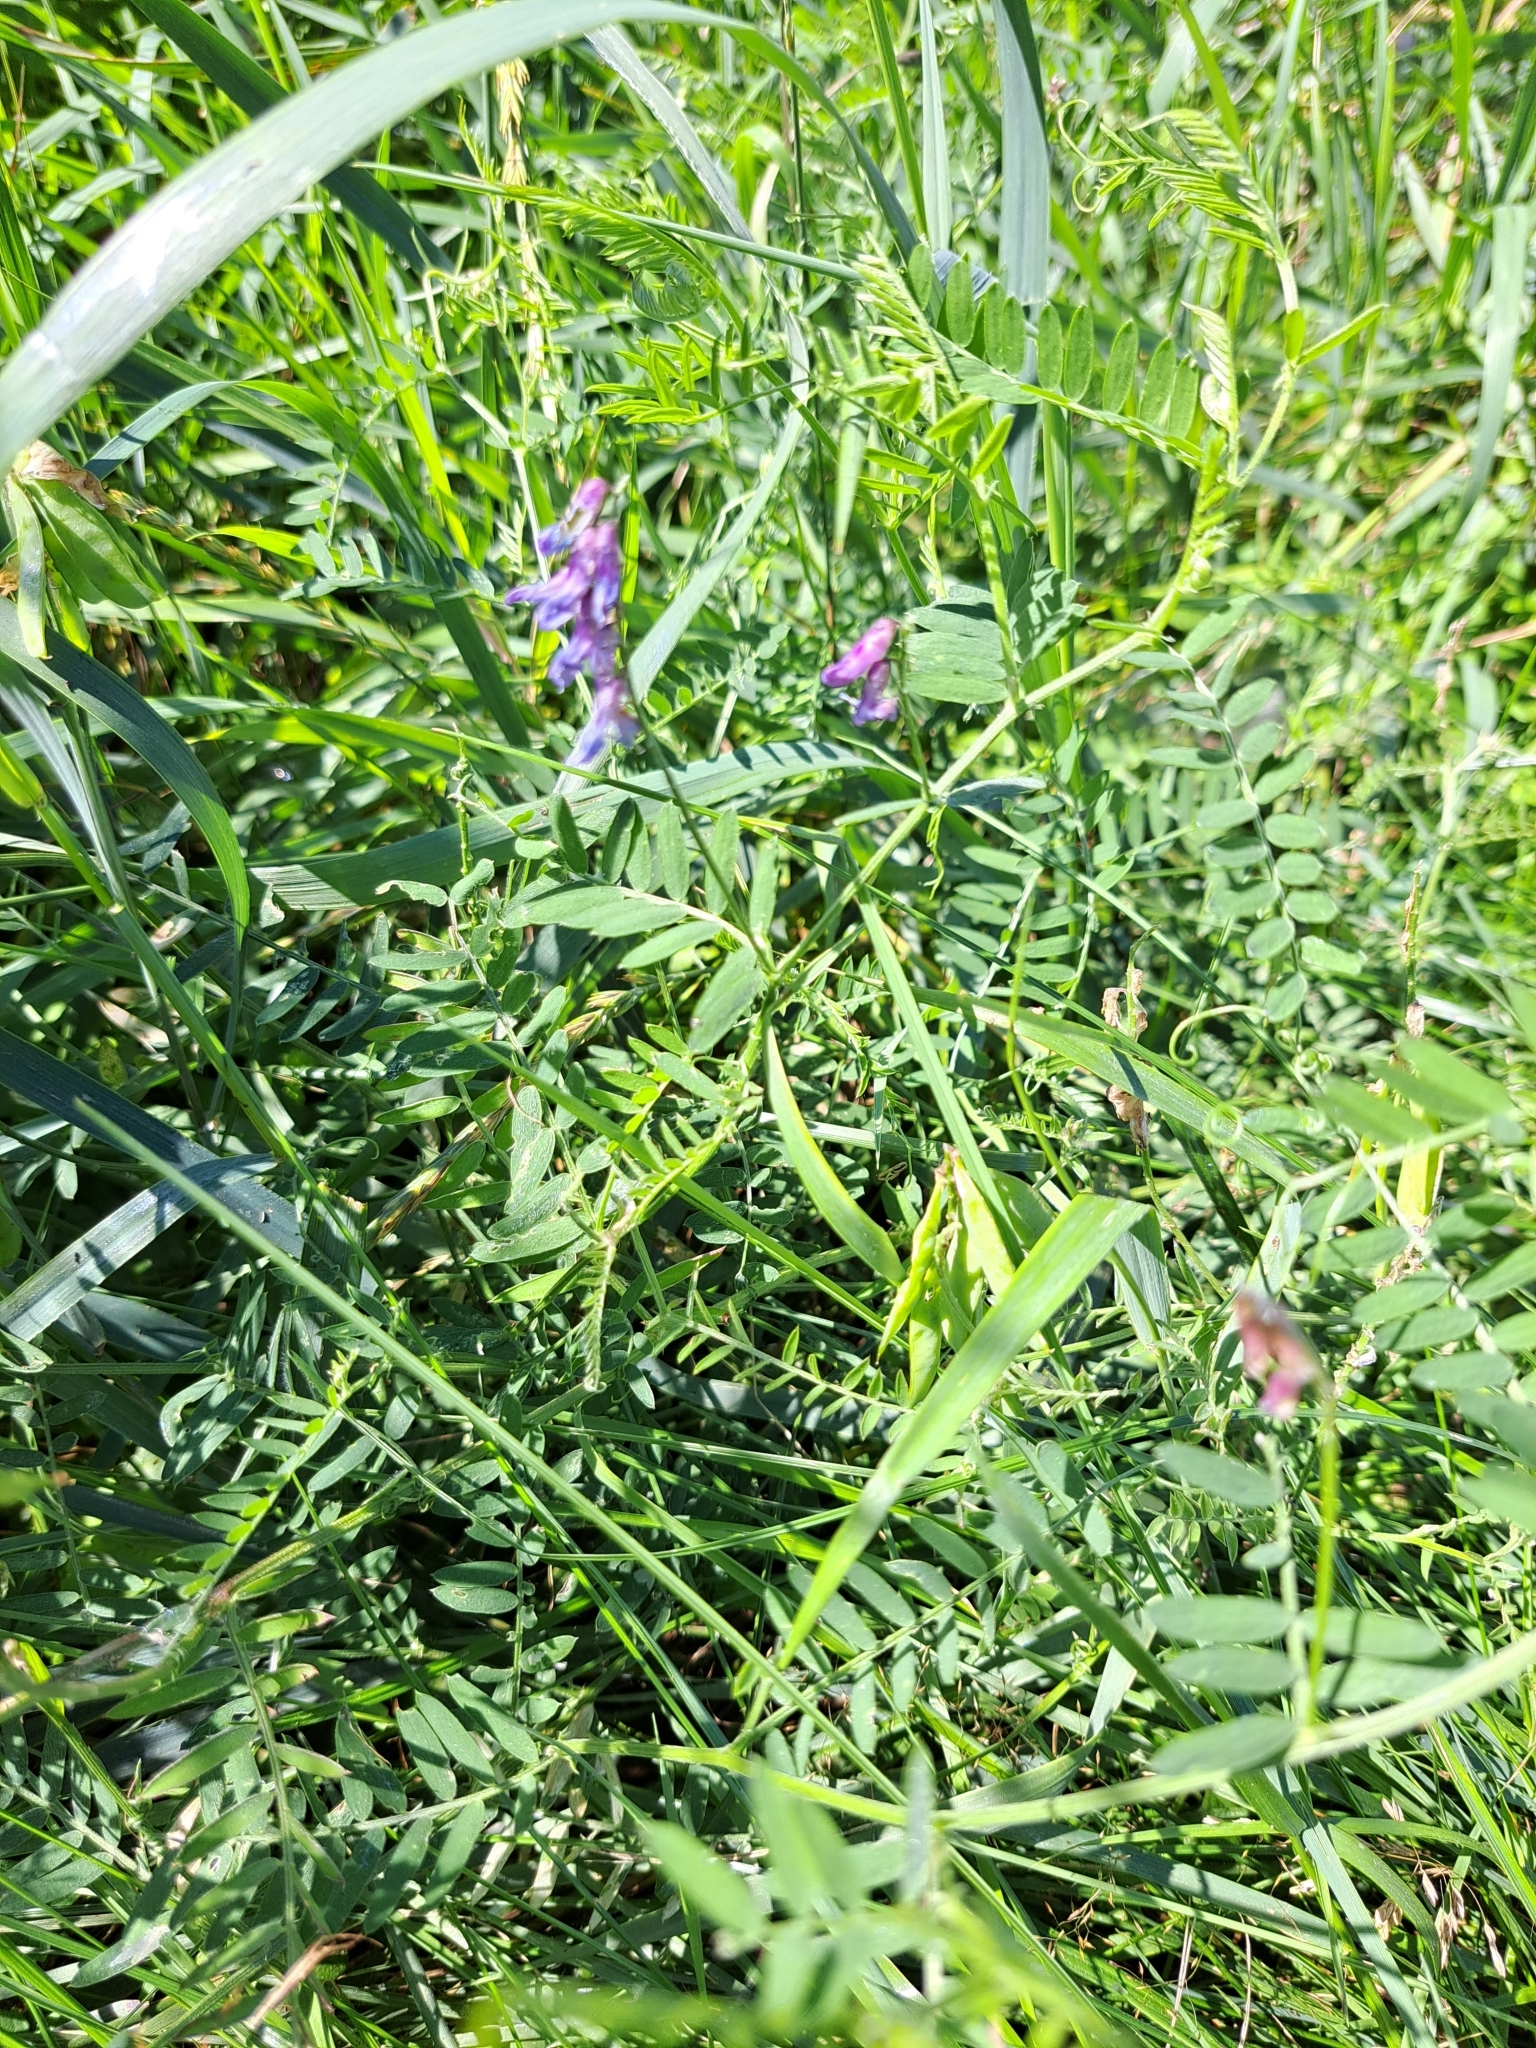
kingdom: Plantae
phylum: Tracheophyta
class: Magnoliopsida
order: Fabales
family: Fabaceae
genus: Vicia
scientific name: Vicia cracca
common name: Bird vetch
